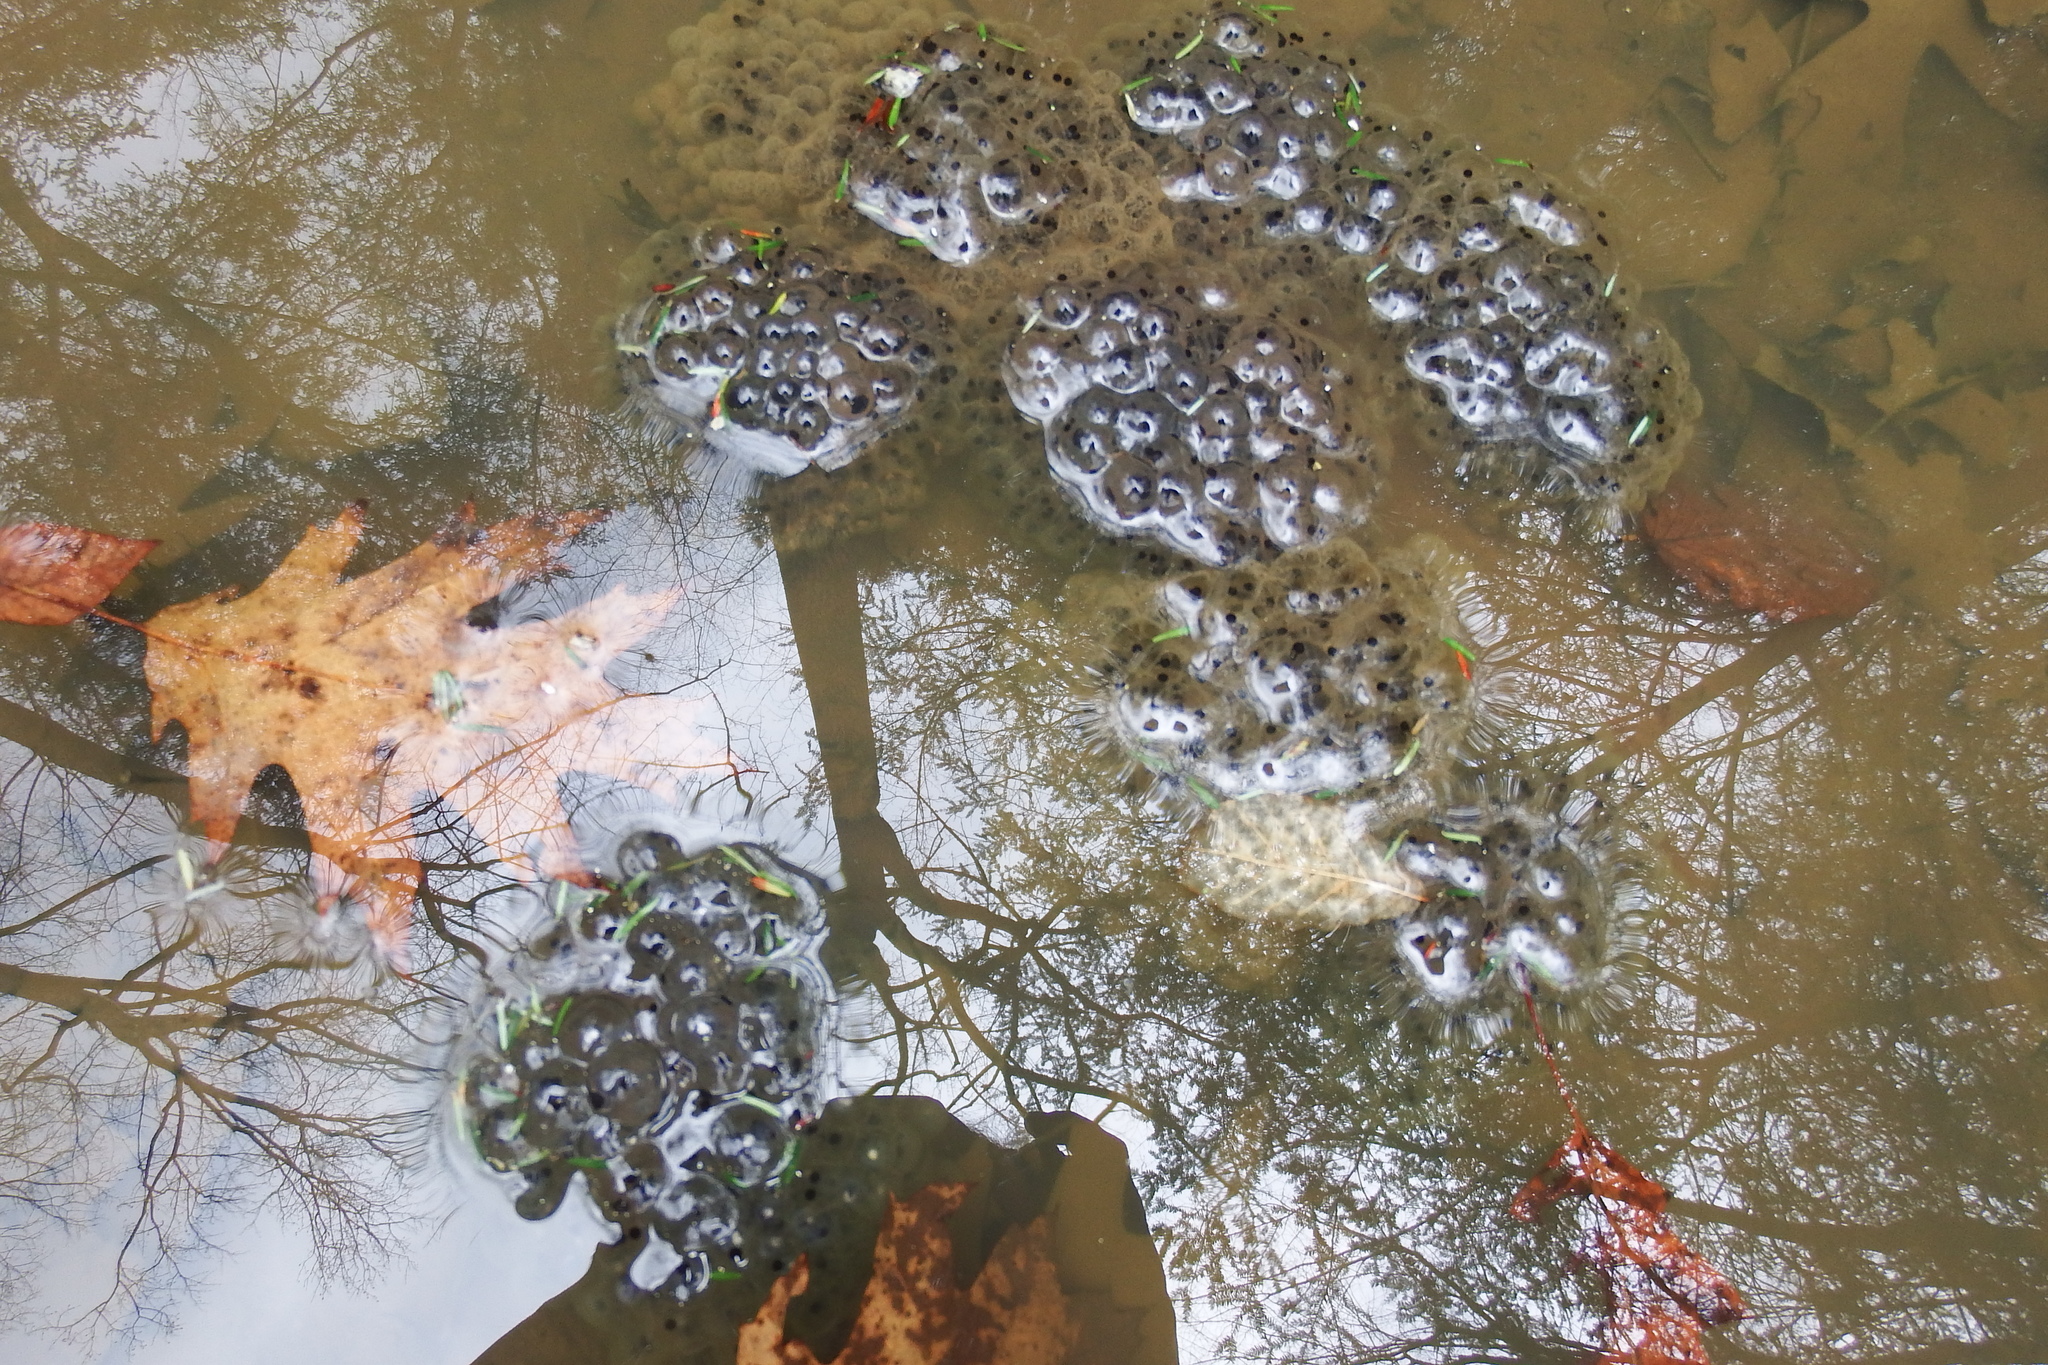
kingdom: Animalia
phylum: Chordata
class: Amphibia
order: Anura
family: Ranidae
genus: Lithobates
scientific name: Lithobates sylvaticus
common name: Wood frog
